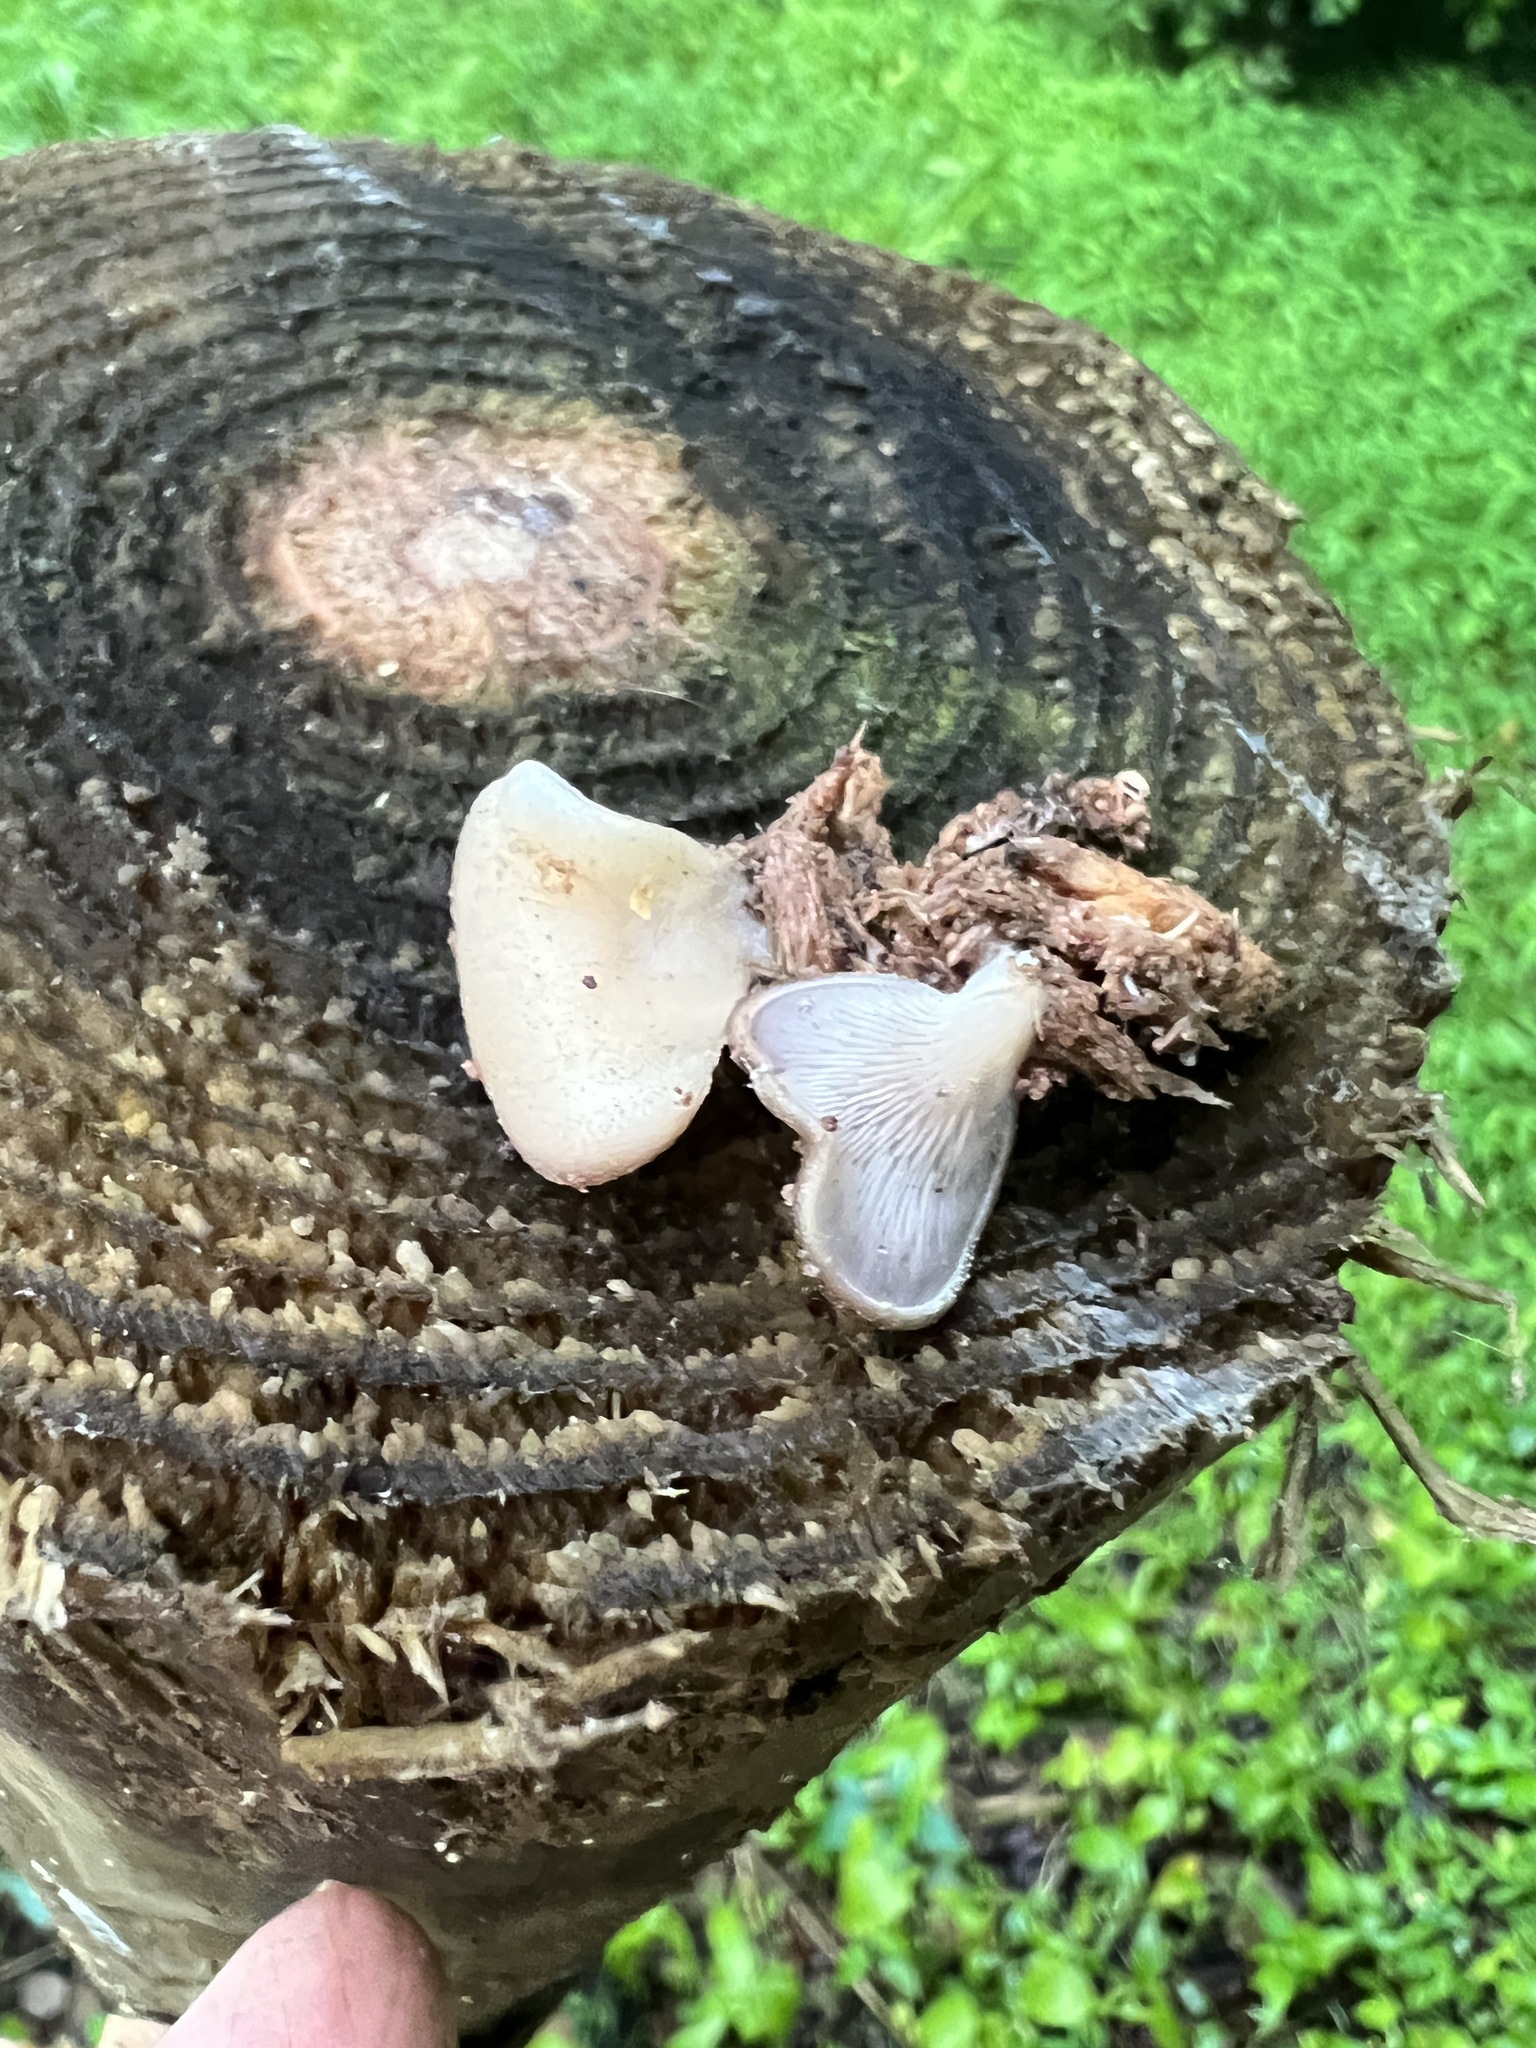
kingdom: Fungi
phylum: Basidiomycota
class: Agaricomycetes
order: Agaricales
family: Pleurotaceae
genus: Hohenbuehelia
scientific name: Hohenbuehelia petaloides
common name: Shoehorn oyster
